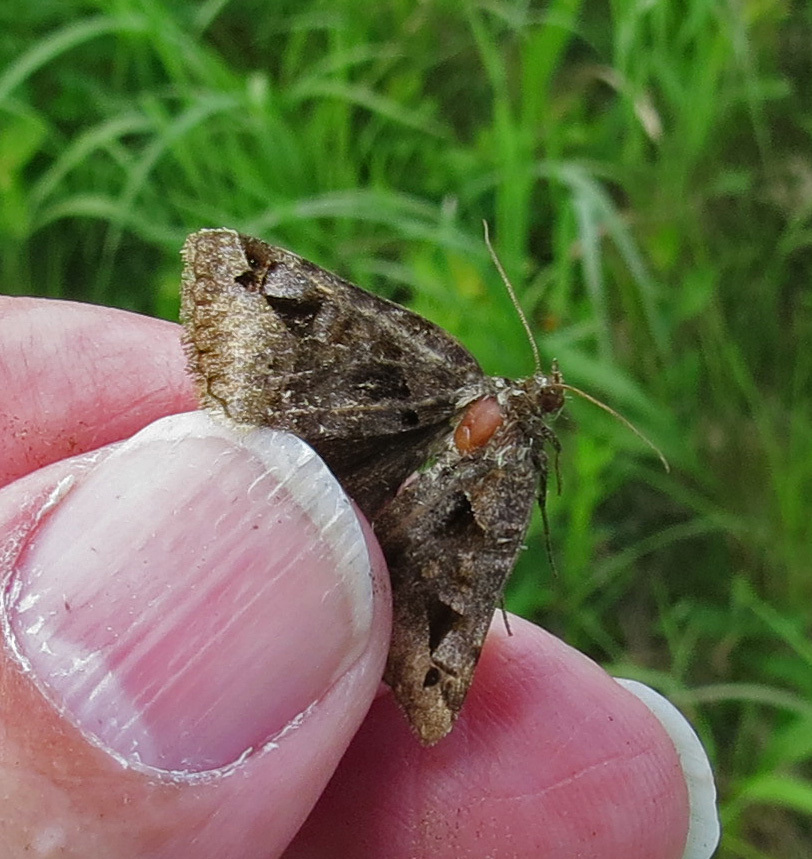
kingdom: Animalia
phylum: Arthropoda
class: Insecta
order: Lepidoptera
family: Erebidae
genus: Euclidia
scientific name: Euclidia cuspidea
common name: Toothed somberwing
